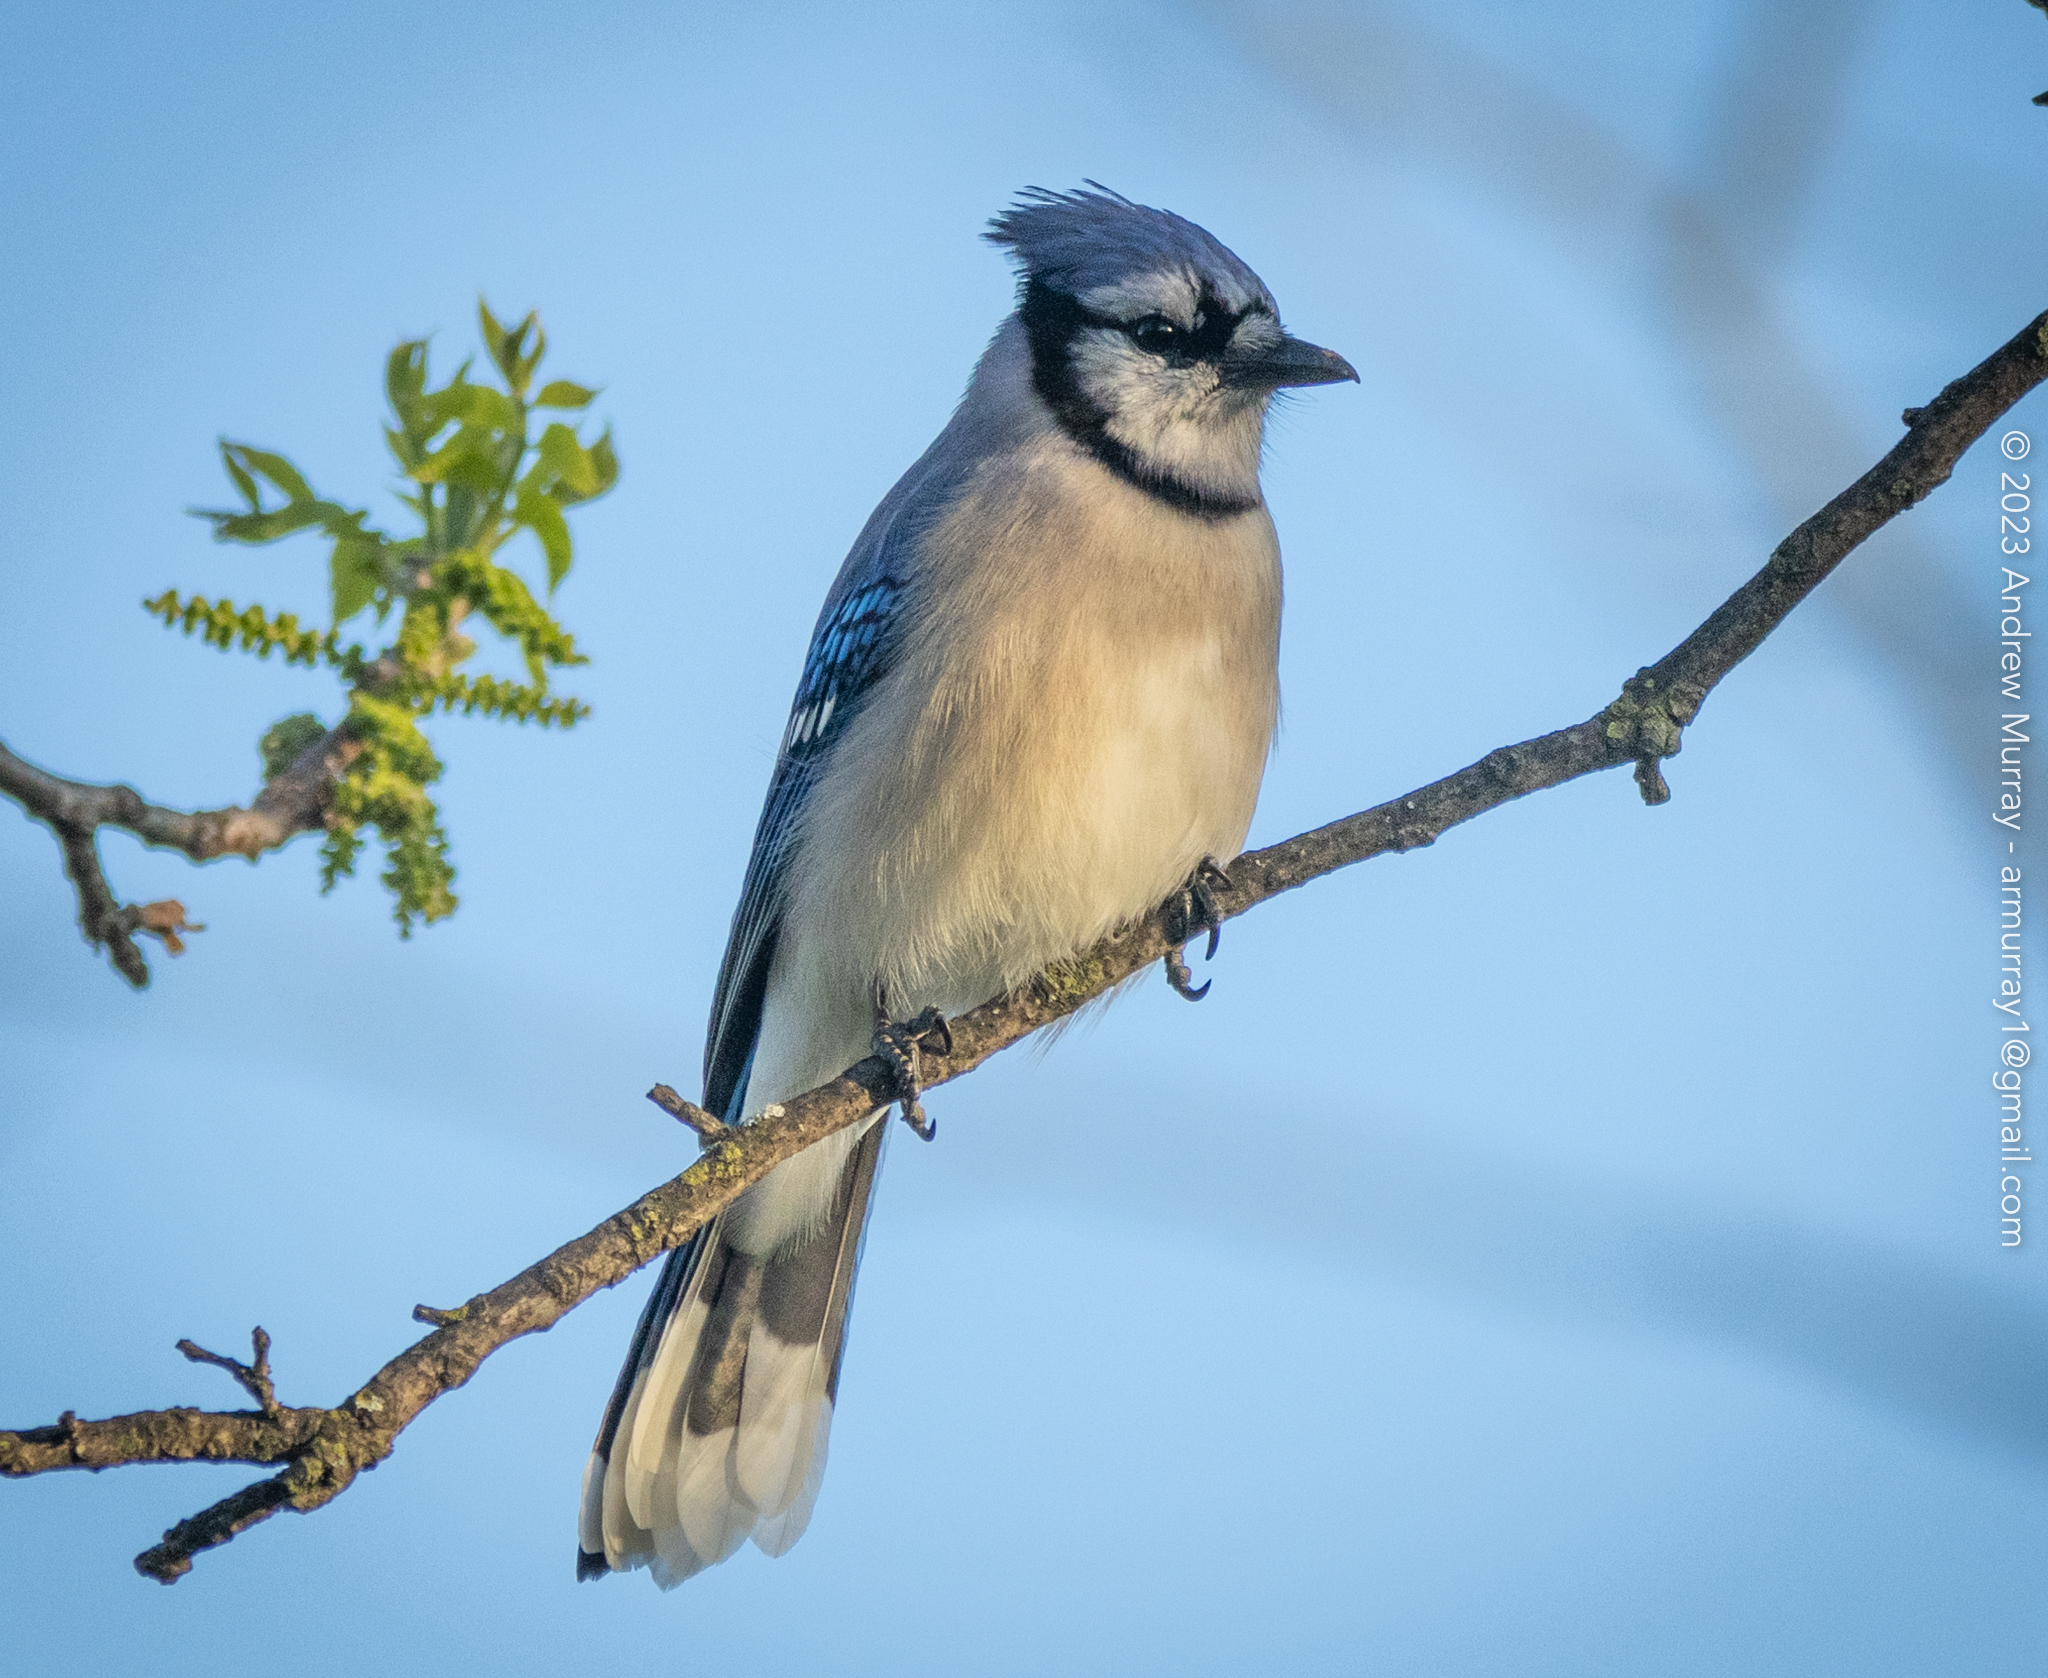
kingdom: Animalia
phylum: Chordata
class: Aves
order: Passeriformes
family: Corvidae
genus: Cyanocitta
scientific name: Cyanocitta cristata
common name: Blue jay
